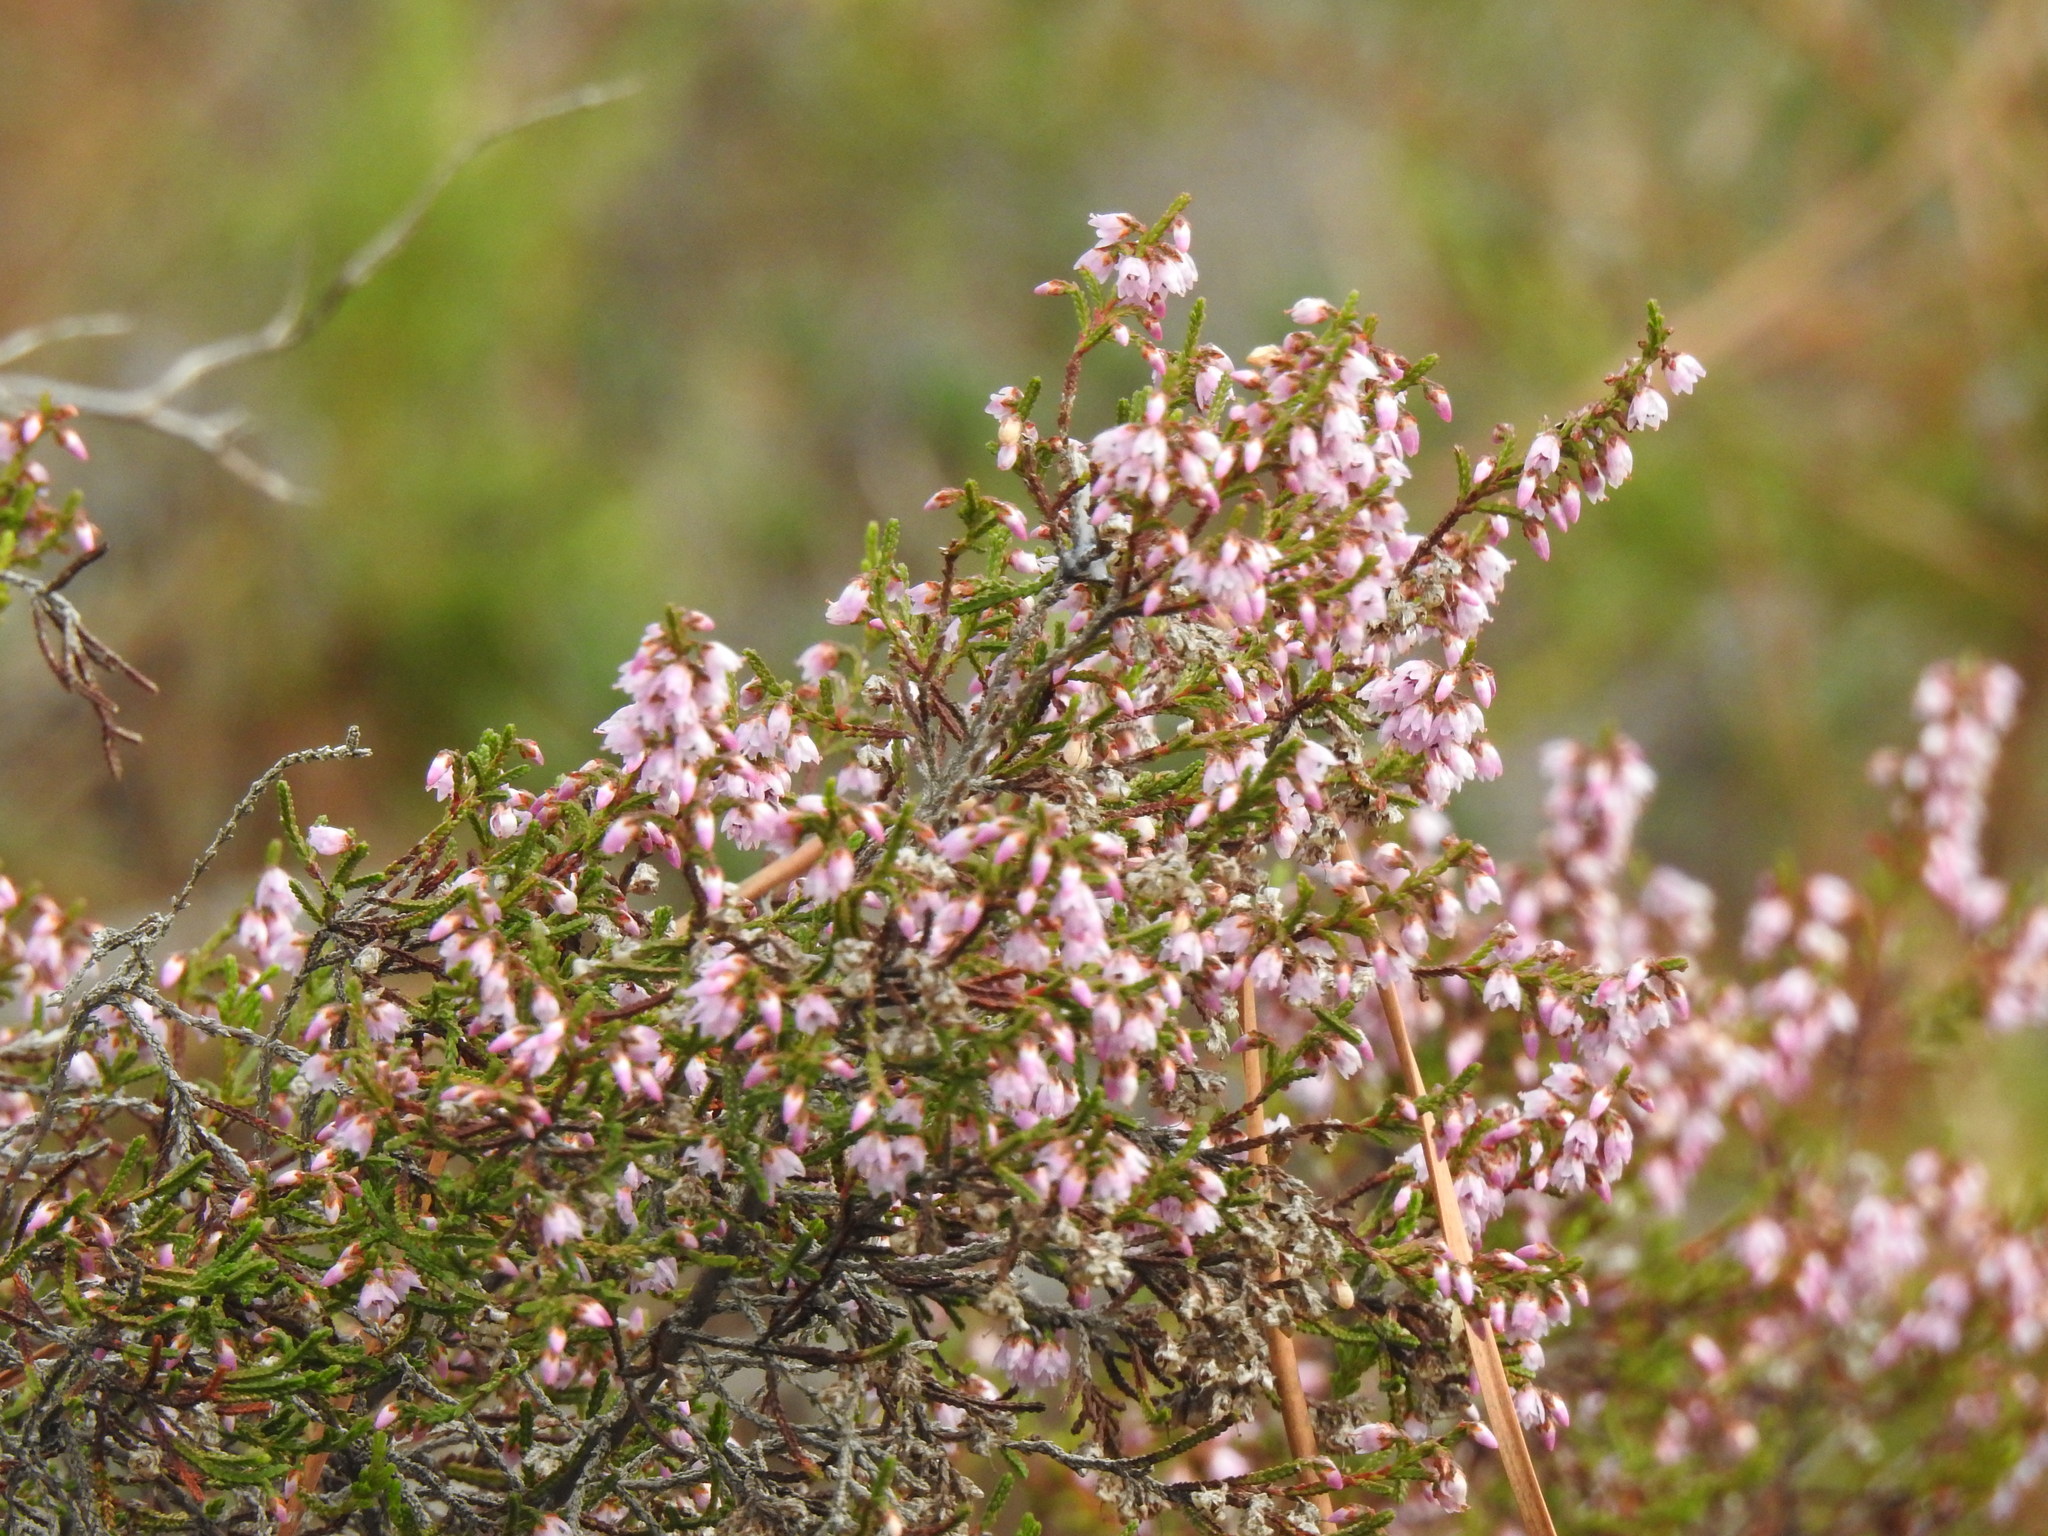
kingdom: Plantae
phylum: Tracheophyta
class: Magnoliopsida
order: Ericales
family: Ericaceae
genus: Calluna
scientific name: Calluna vulgaris
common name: Heather
